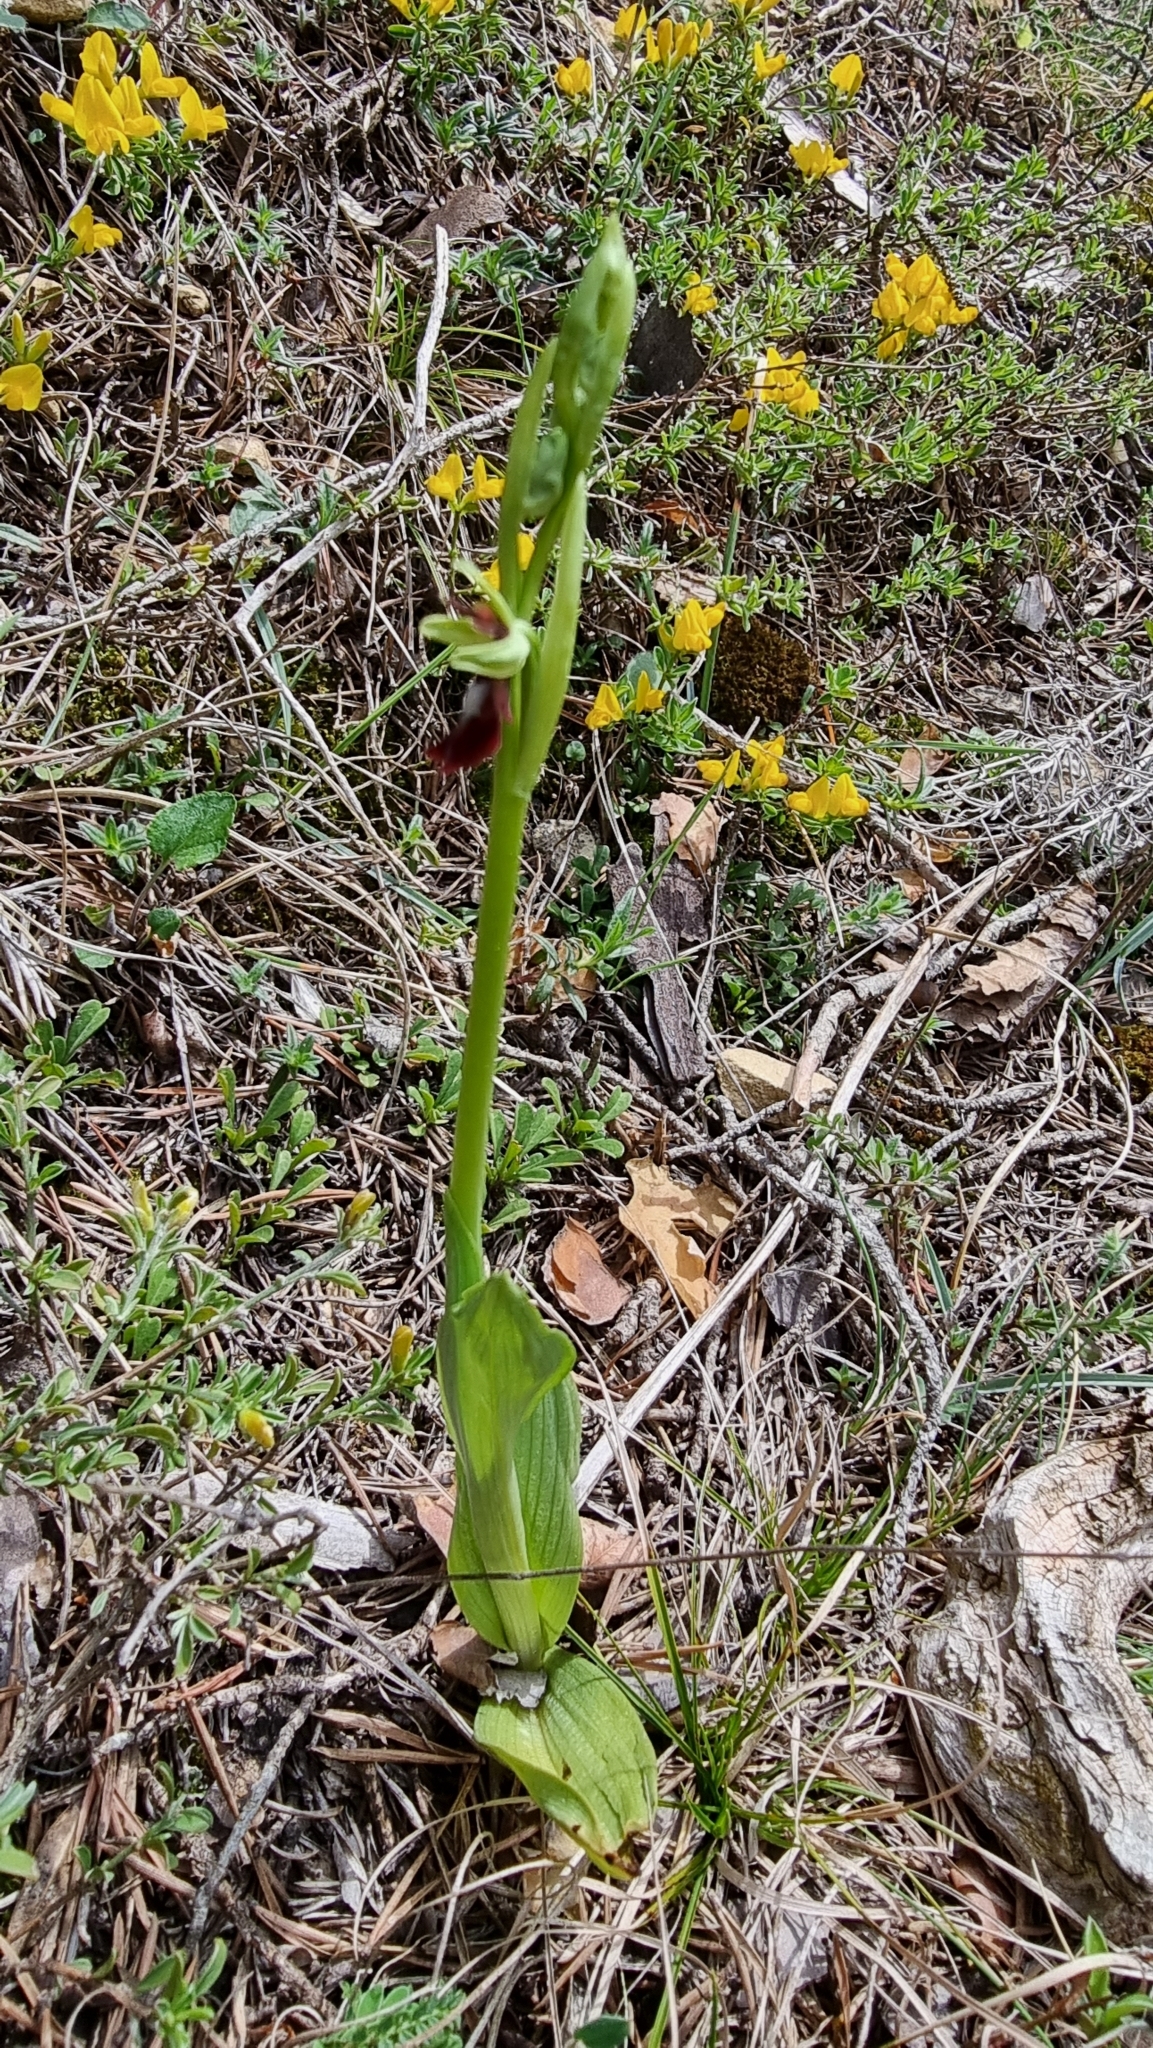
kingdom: Plantae
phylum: Tracheophyta
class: Liliopsida
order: Asparagales
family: Orchidaceae
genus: Ophrys
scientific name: Ophrys insectifera
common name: Fly orchid
